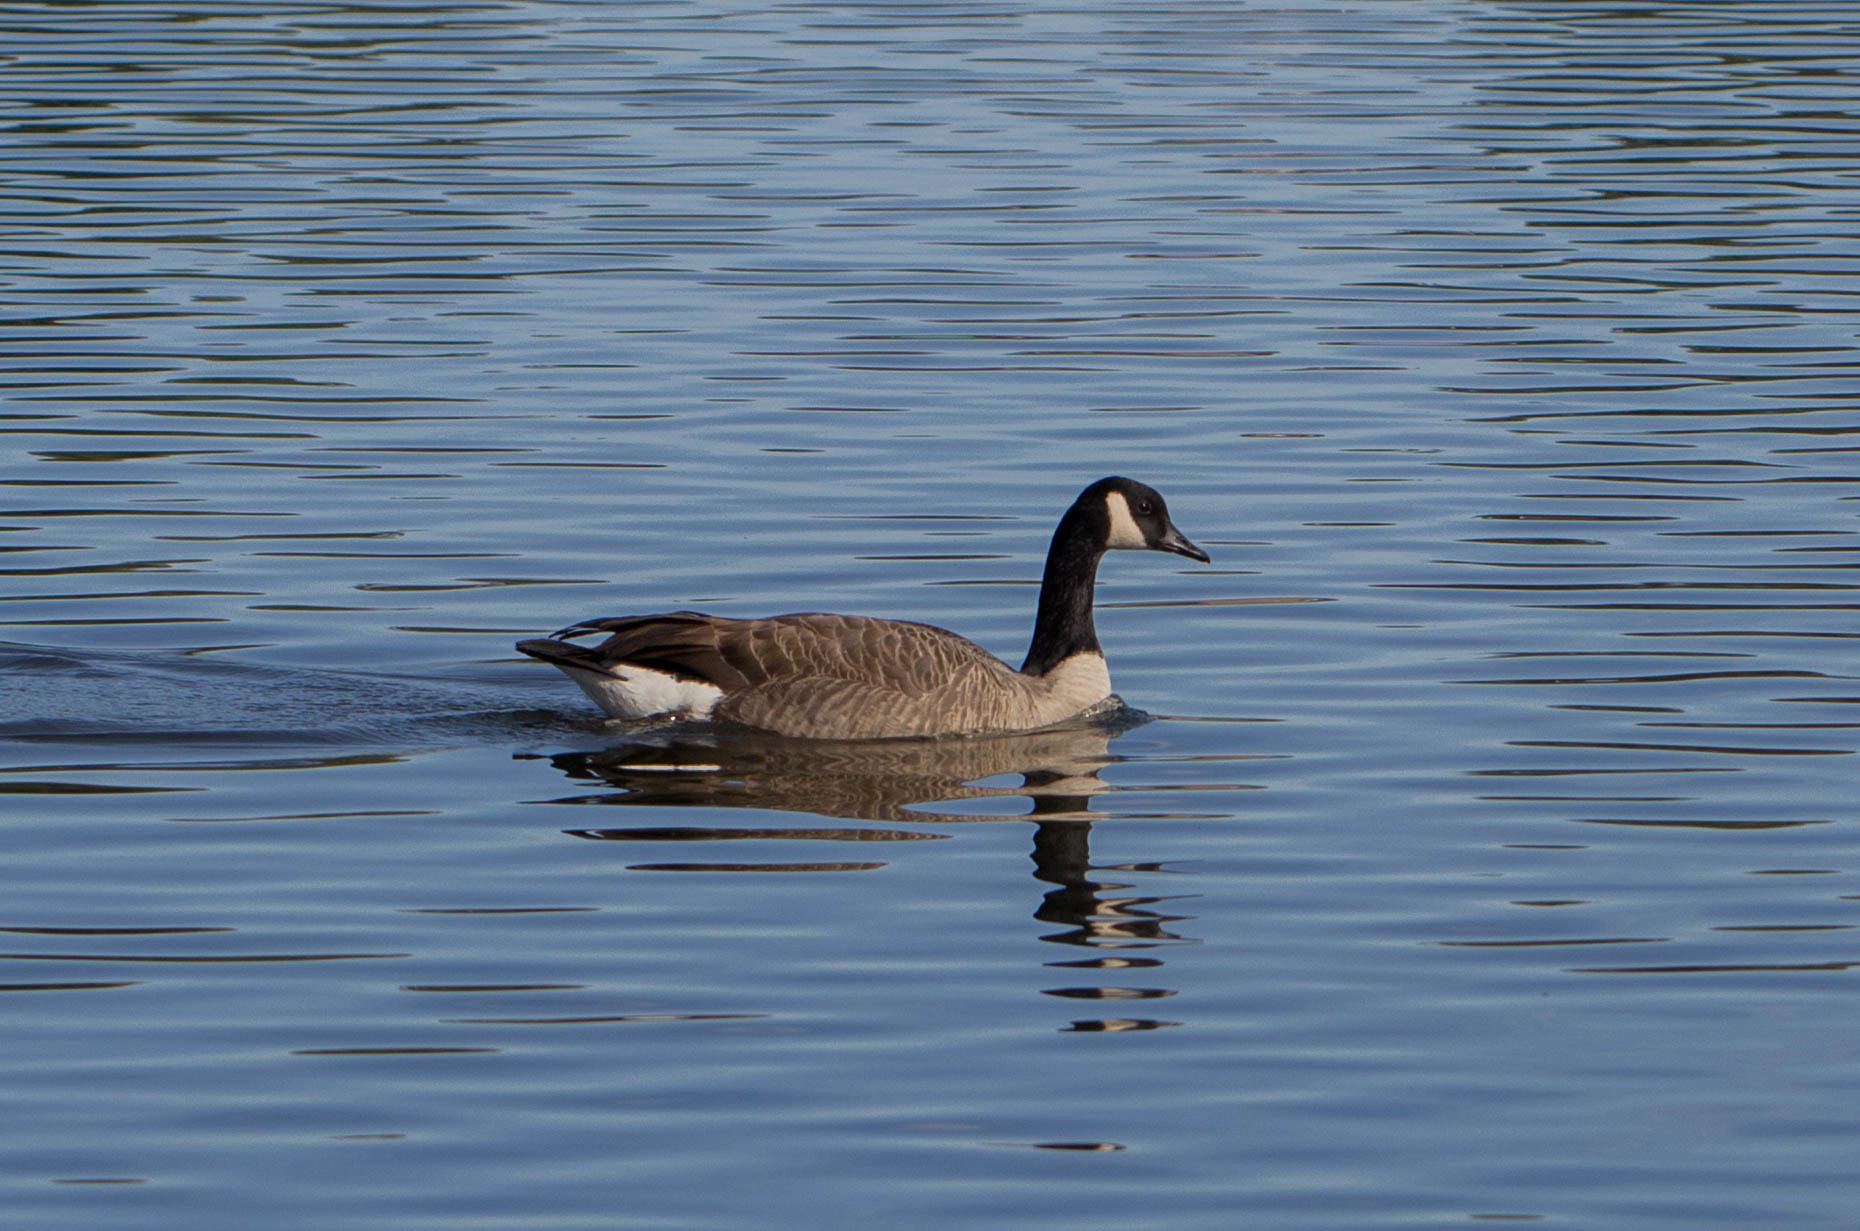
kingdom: Animalia
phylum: Chordata
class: Aves
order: Anseriformes
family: Anatidae
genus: Branta
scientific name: Branta canadensis
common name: Canada goose
